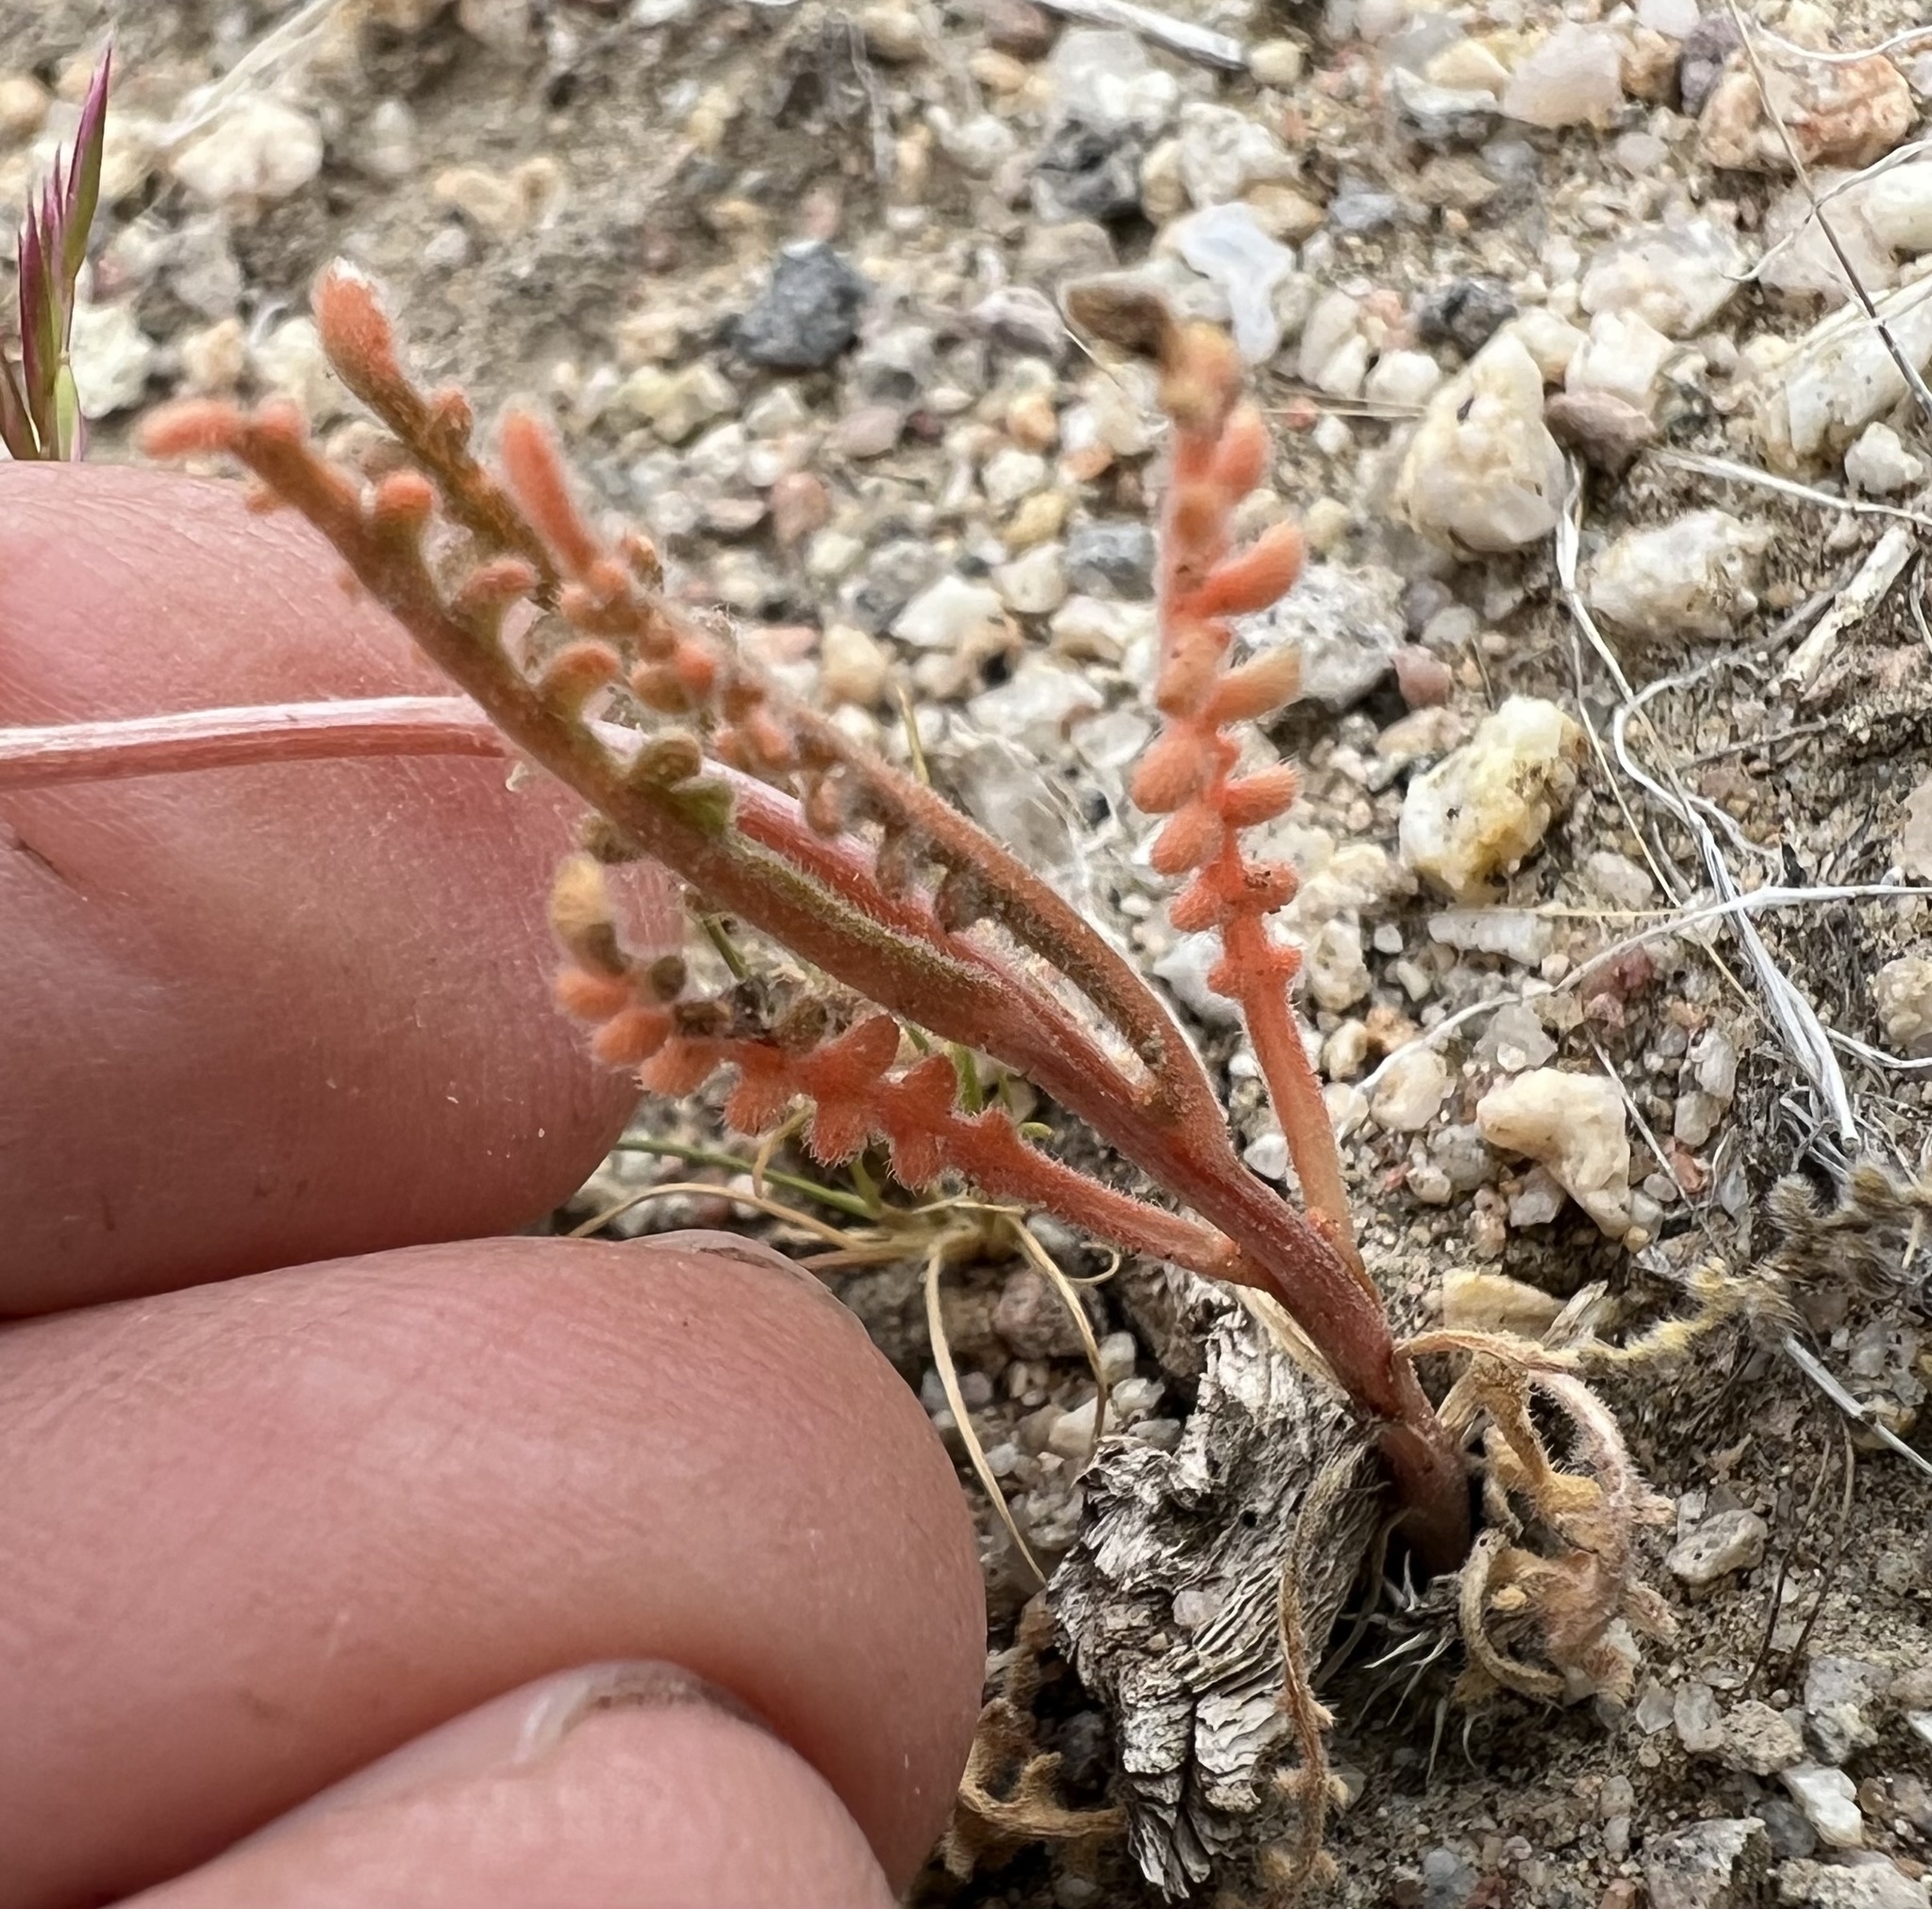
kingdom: Plantae
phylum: Tracheophyta
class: Magnoliopsida
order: Cornales
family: Loasaceae
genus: Mentzelia
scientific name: Mentzelia albicaulis
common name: White-stem blazingstar
